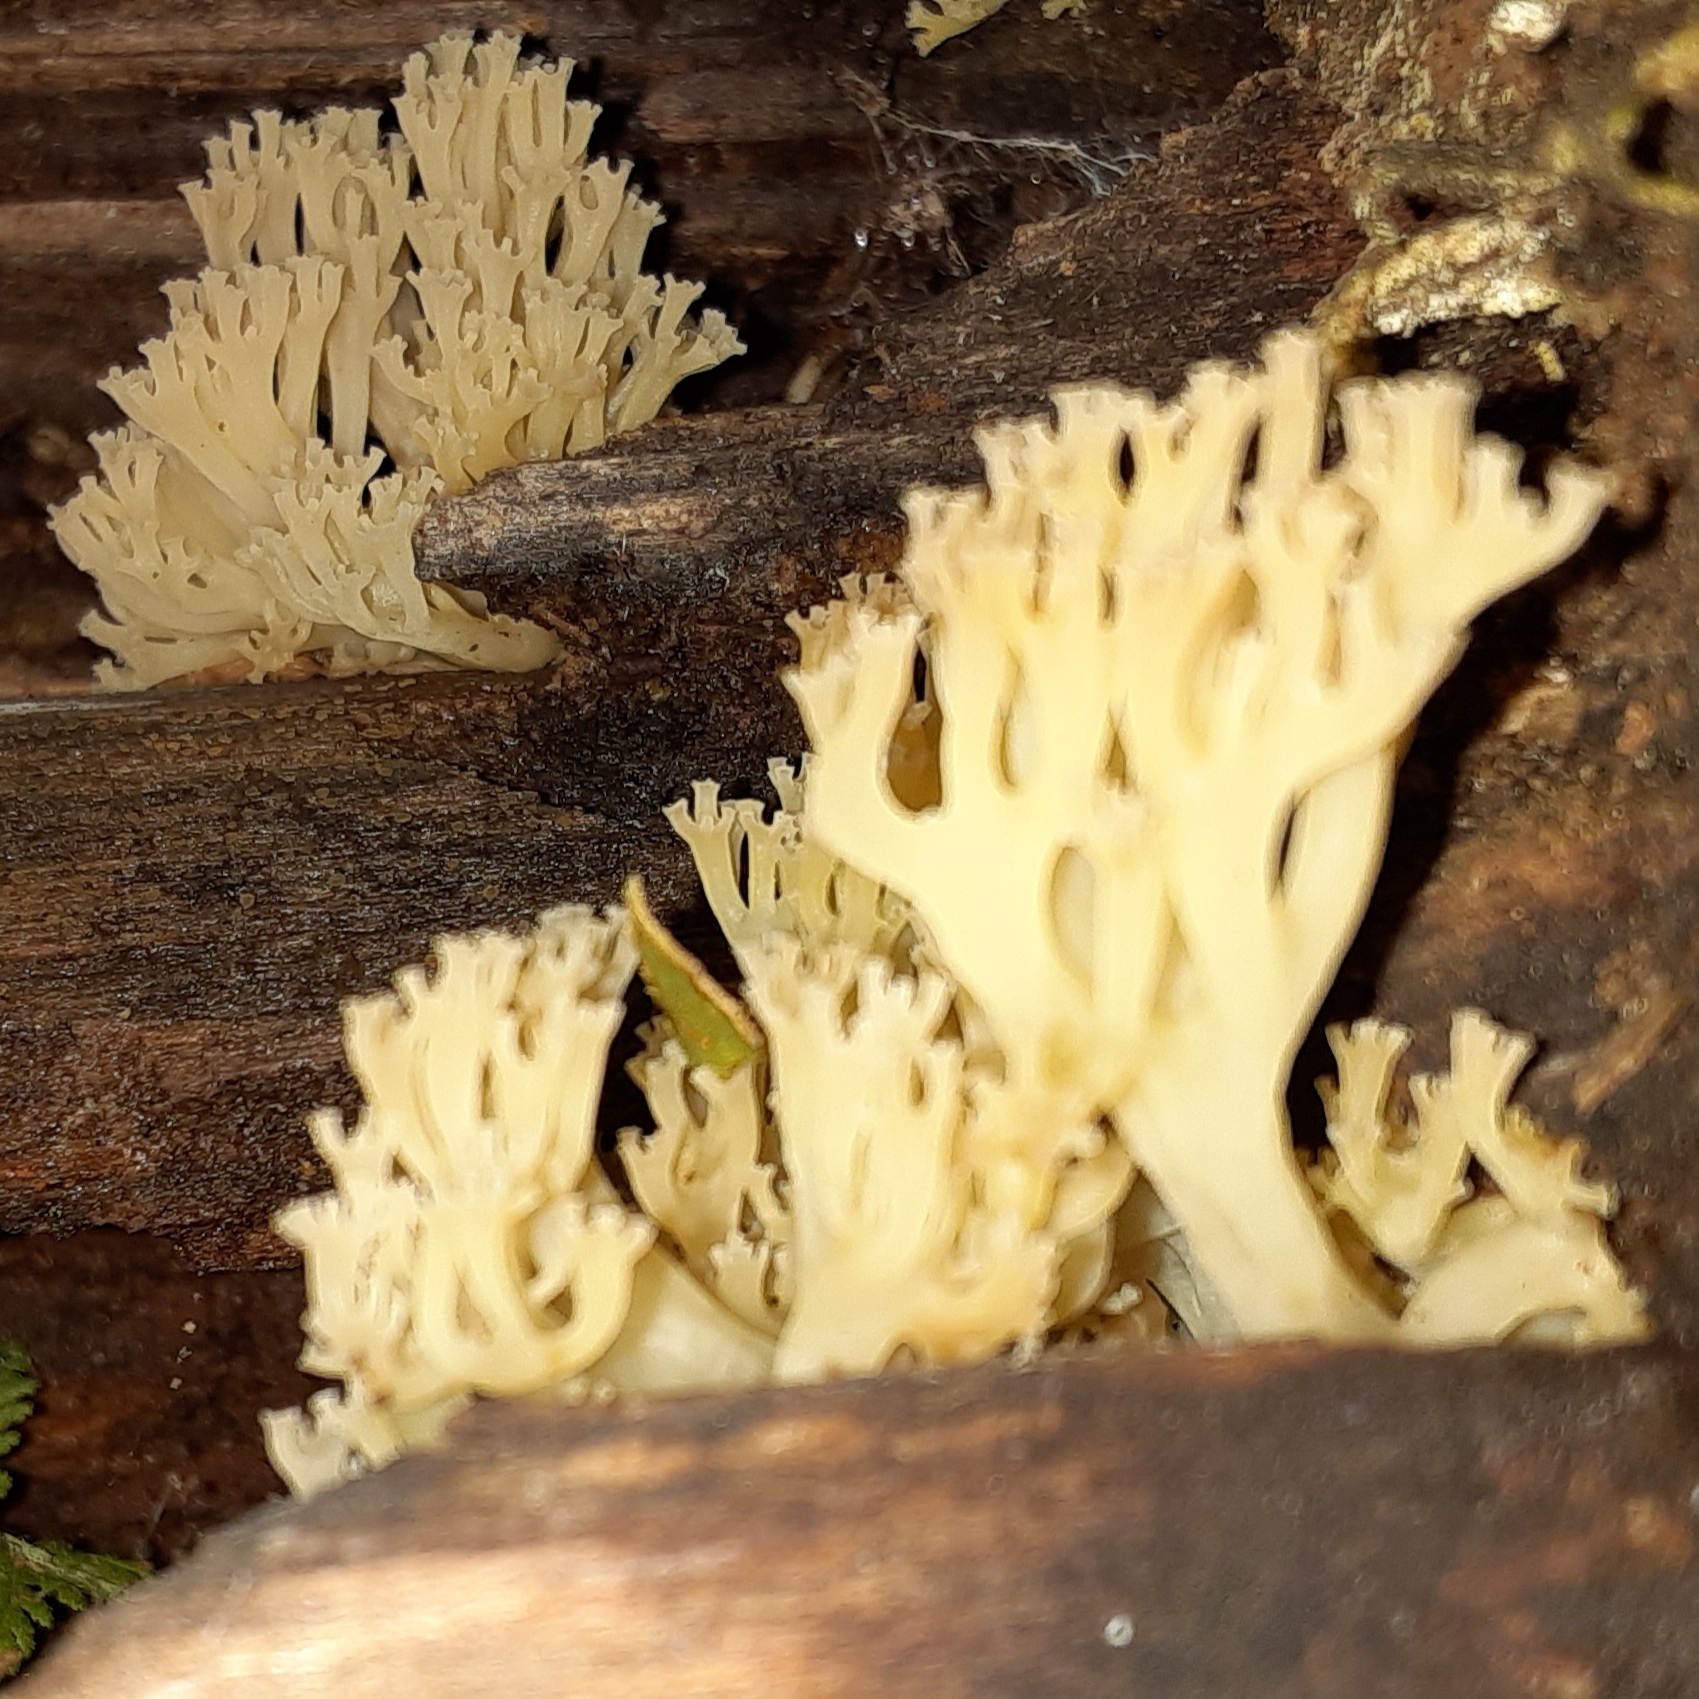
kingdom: Fungi
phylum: Basidiomycota
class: Agaricomycetes
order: Russulales
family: Auriscalpiaceae
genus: Artomyces
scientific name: Artomyces pyxidatus
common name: Crown-tipped coral fungus
